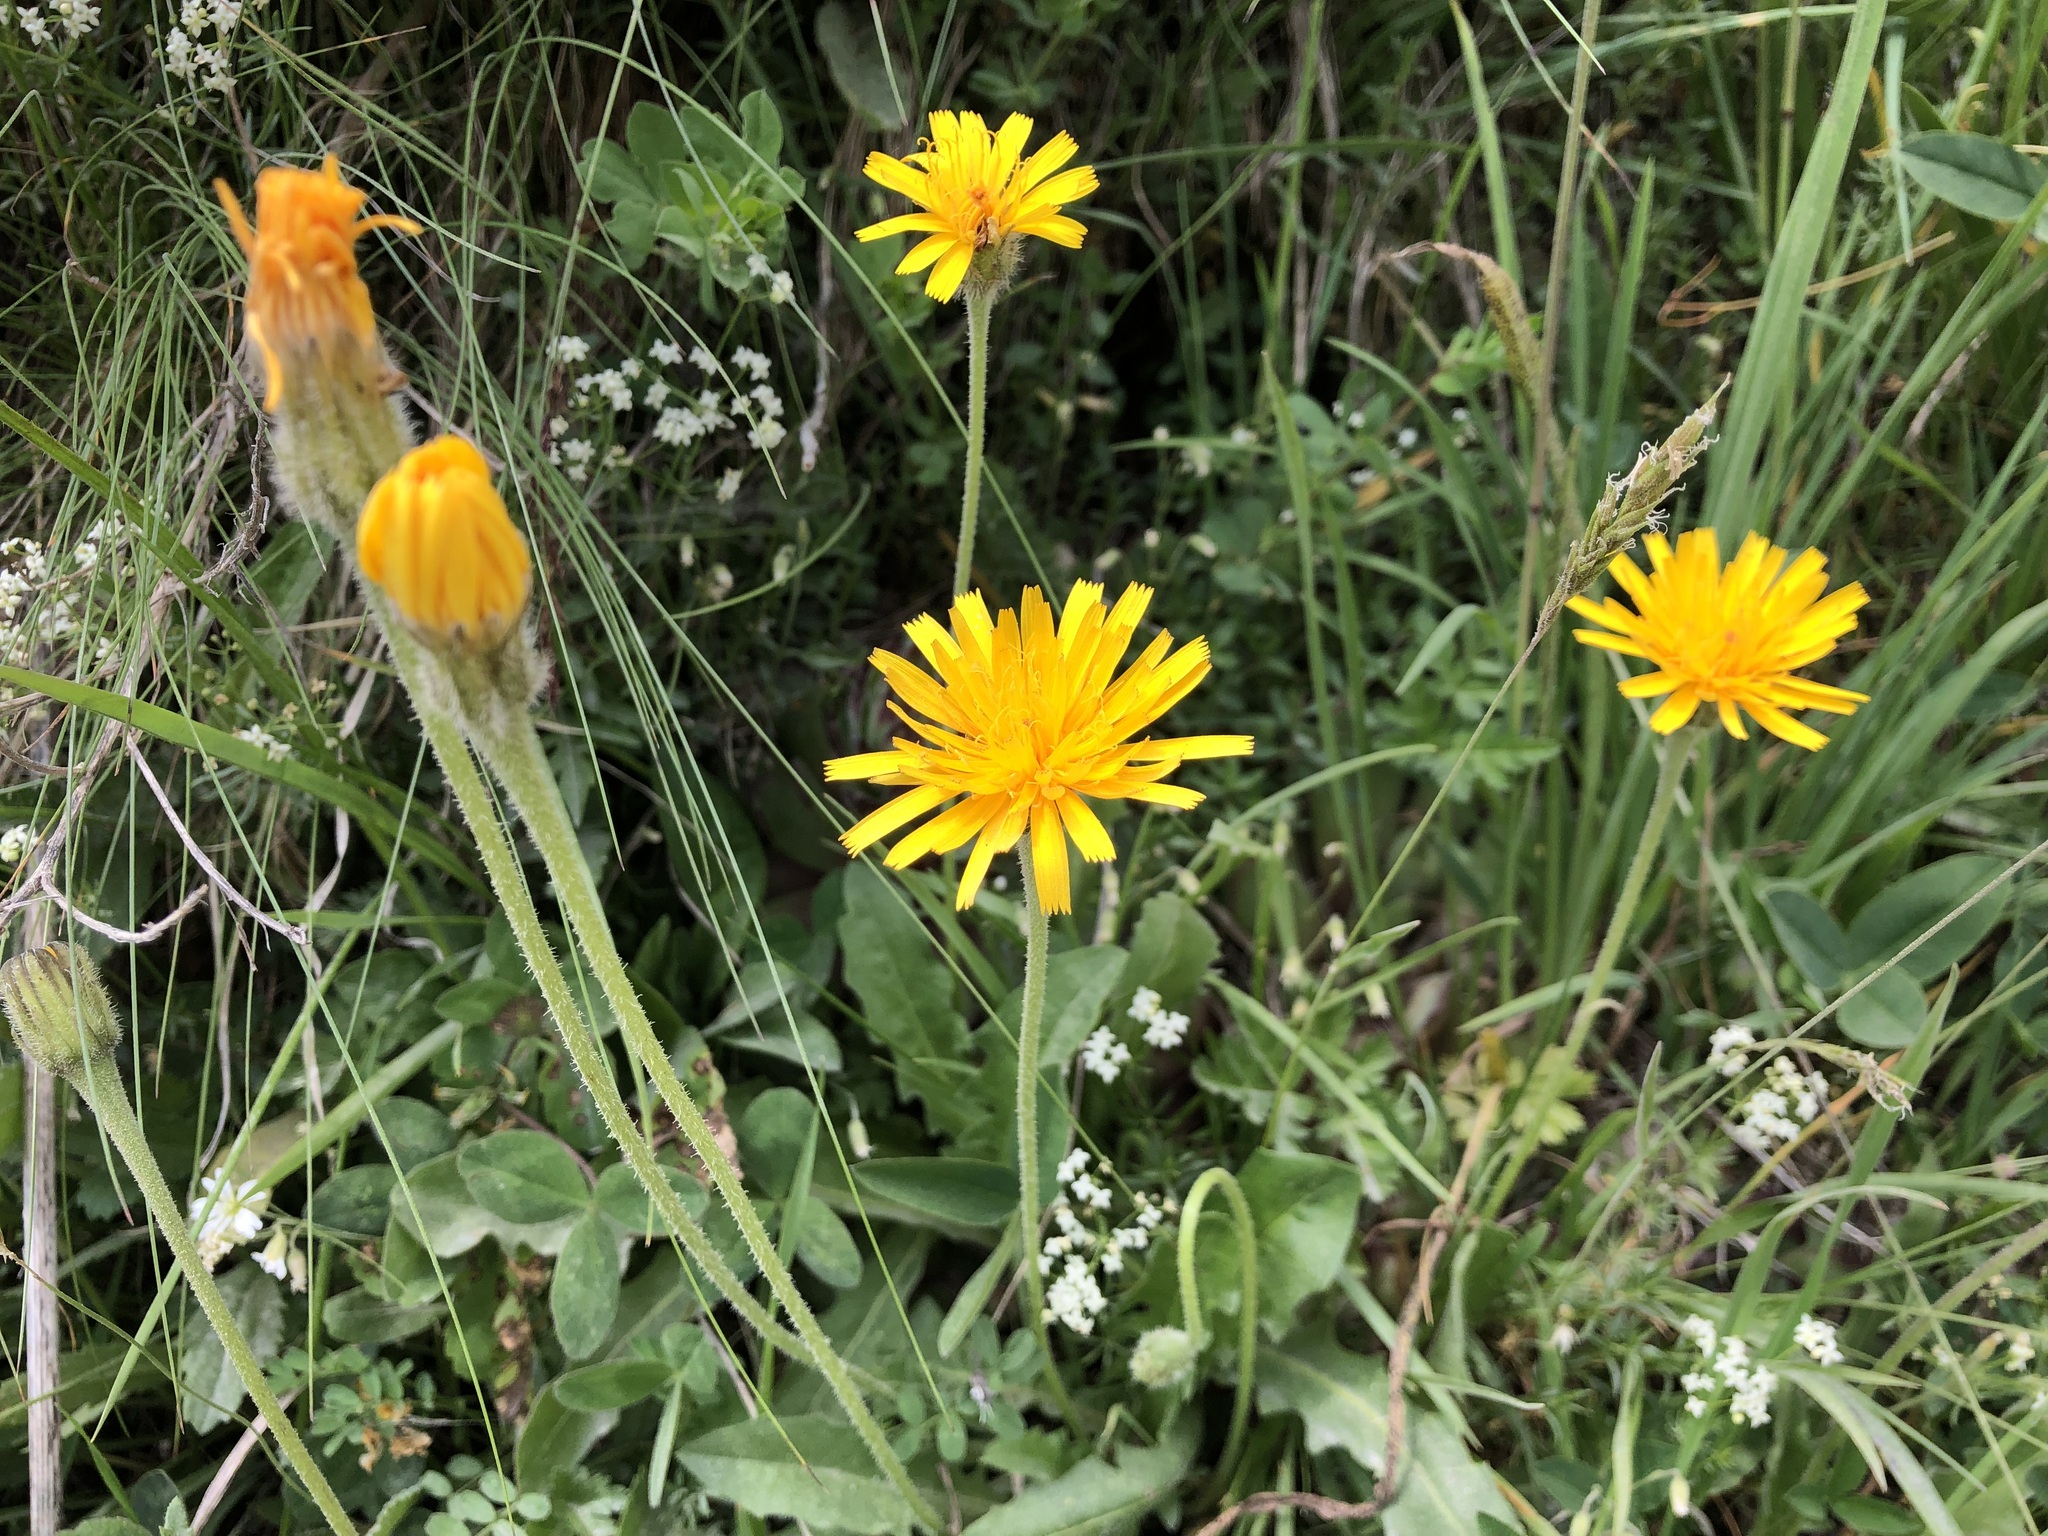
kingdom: Plantae
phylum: Tracheophyta
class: Magnoliopsida
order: Asterales
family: Asteraceae
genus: Leontodon
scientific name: Leontodon hispidus
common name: Rough hawkbit
